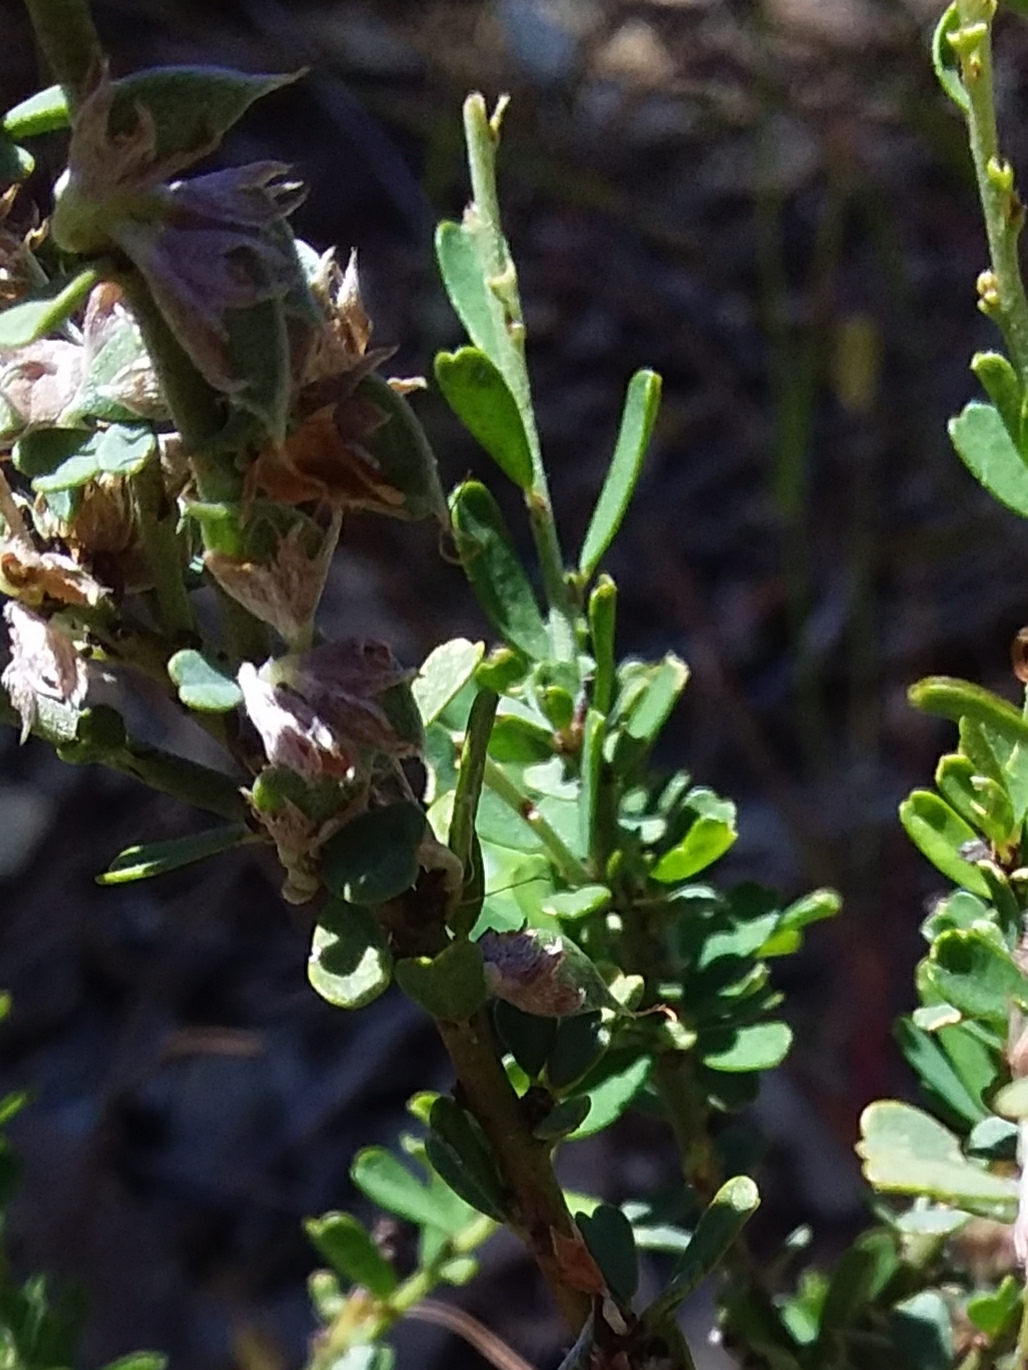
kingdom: Plantae
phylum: Tracheophyta
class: Magnoliopsida
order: Fabales
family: Fabaceae
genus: Pultenaea
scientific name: Pultenaea largiflorens
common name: Twiggy bush-pea
